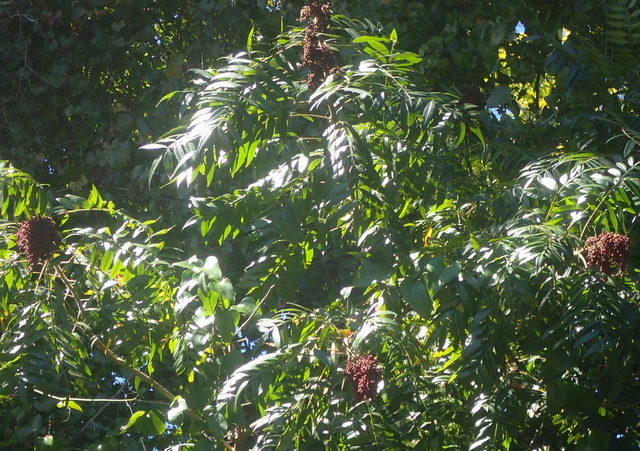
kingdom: Plantae
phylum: Tracheophyta
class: Magnoliopsida
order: Sapindales
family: Anacardiaceae
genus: Rhus
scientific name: Rhus copallina
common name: Shining sumac
